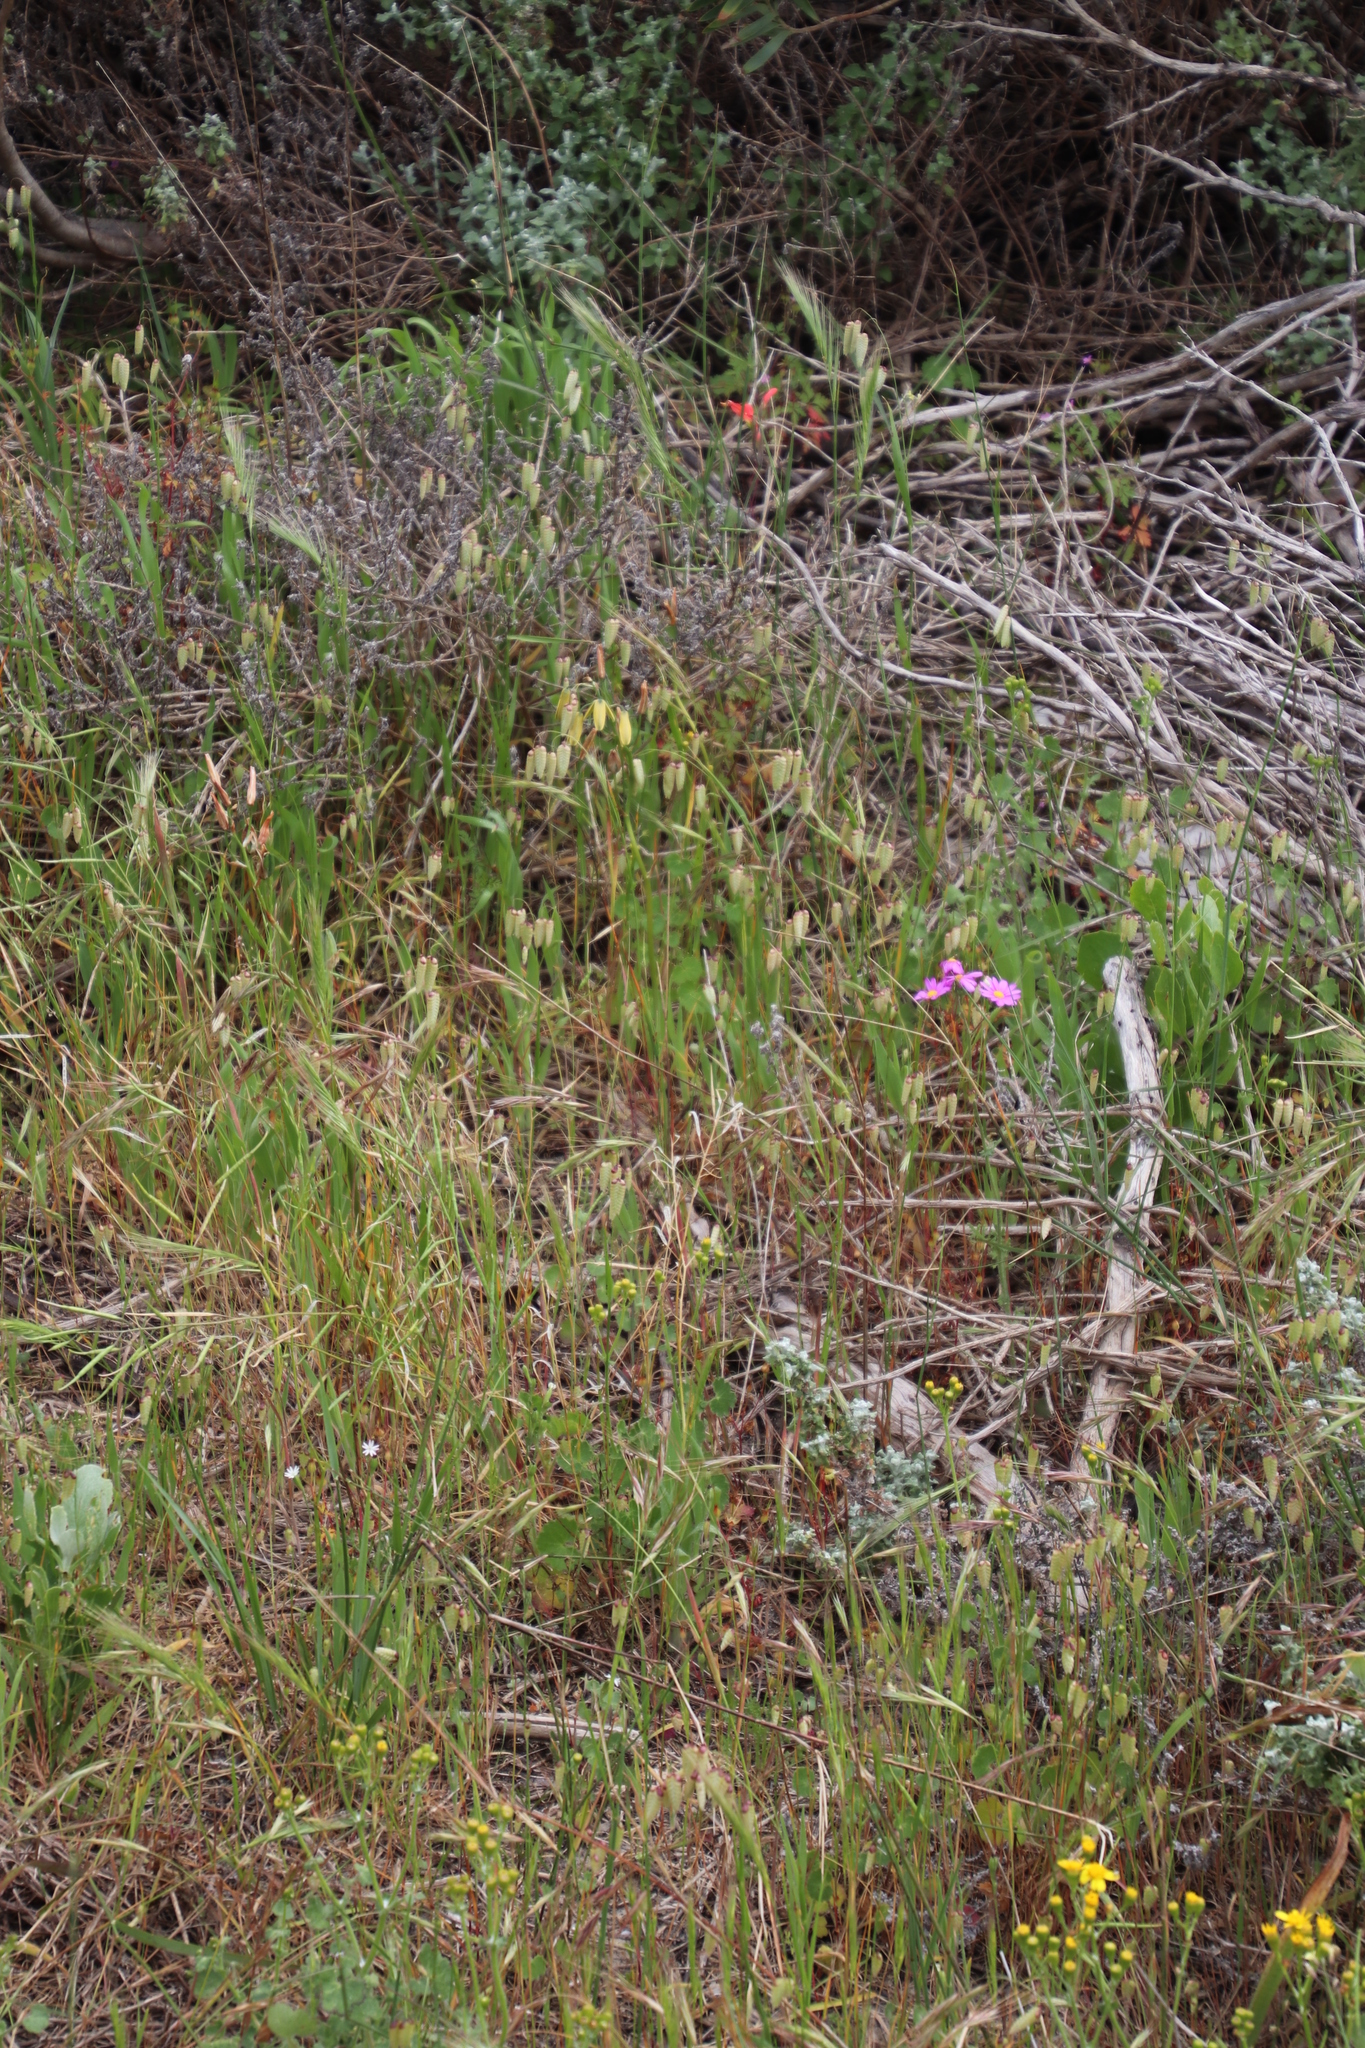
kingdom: Plantae
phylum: Tracheophyta
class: Liliopsida
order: Poales
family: Poaceae
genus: Briza
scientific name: Briza maxima
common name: Big quakinggrass
